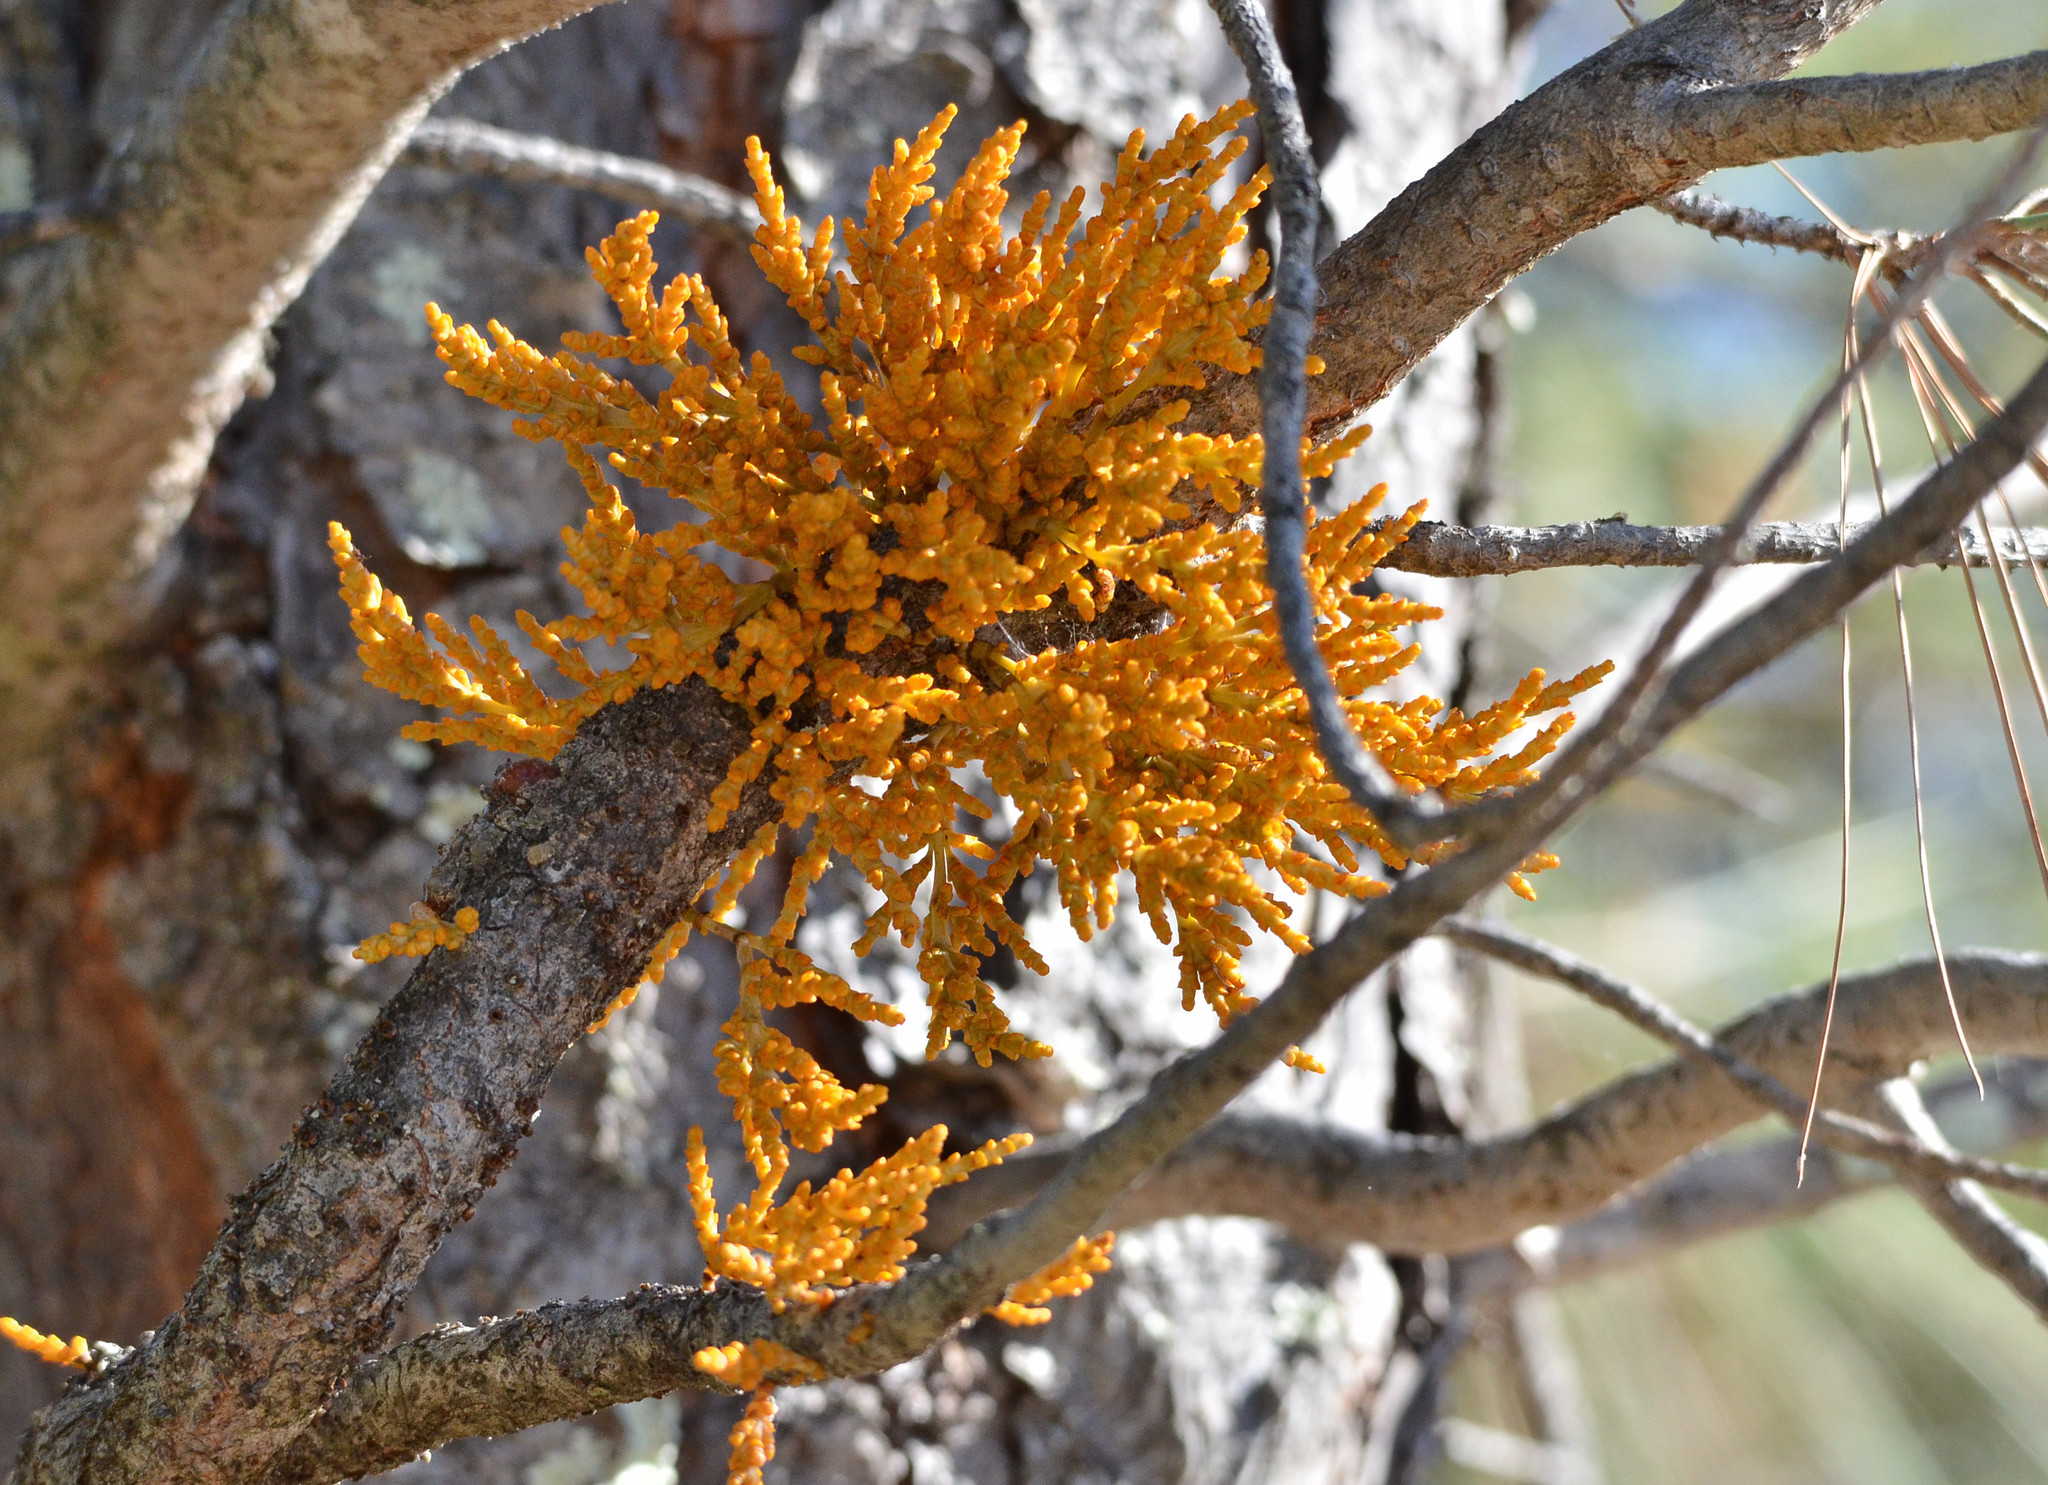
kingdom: Plantae
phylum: Tracheophyta
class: Magnoliopsida
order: Santalales
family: Viscaceae
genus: Arceuthobium
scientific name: Arceuthobium campylopodum
